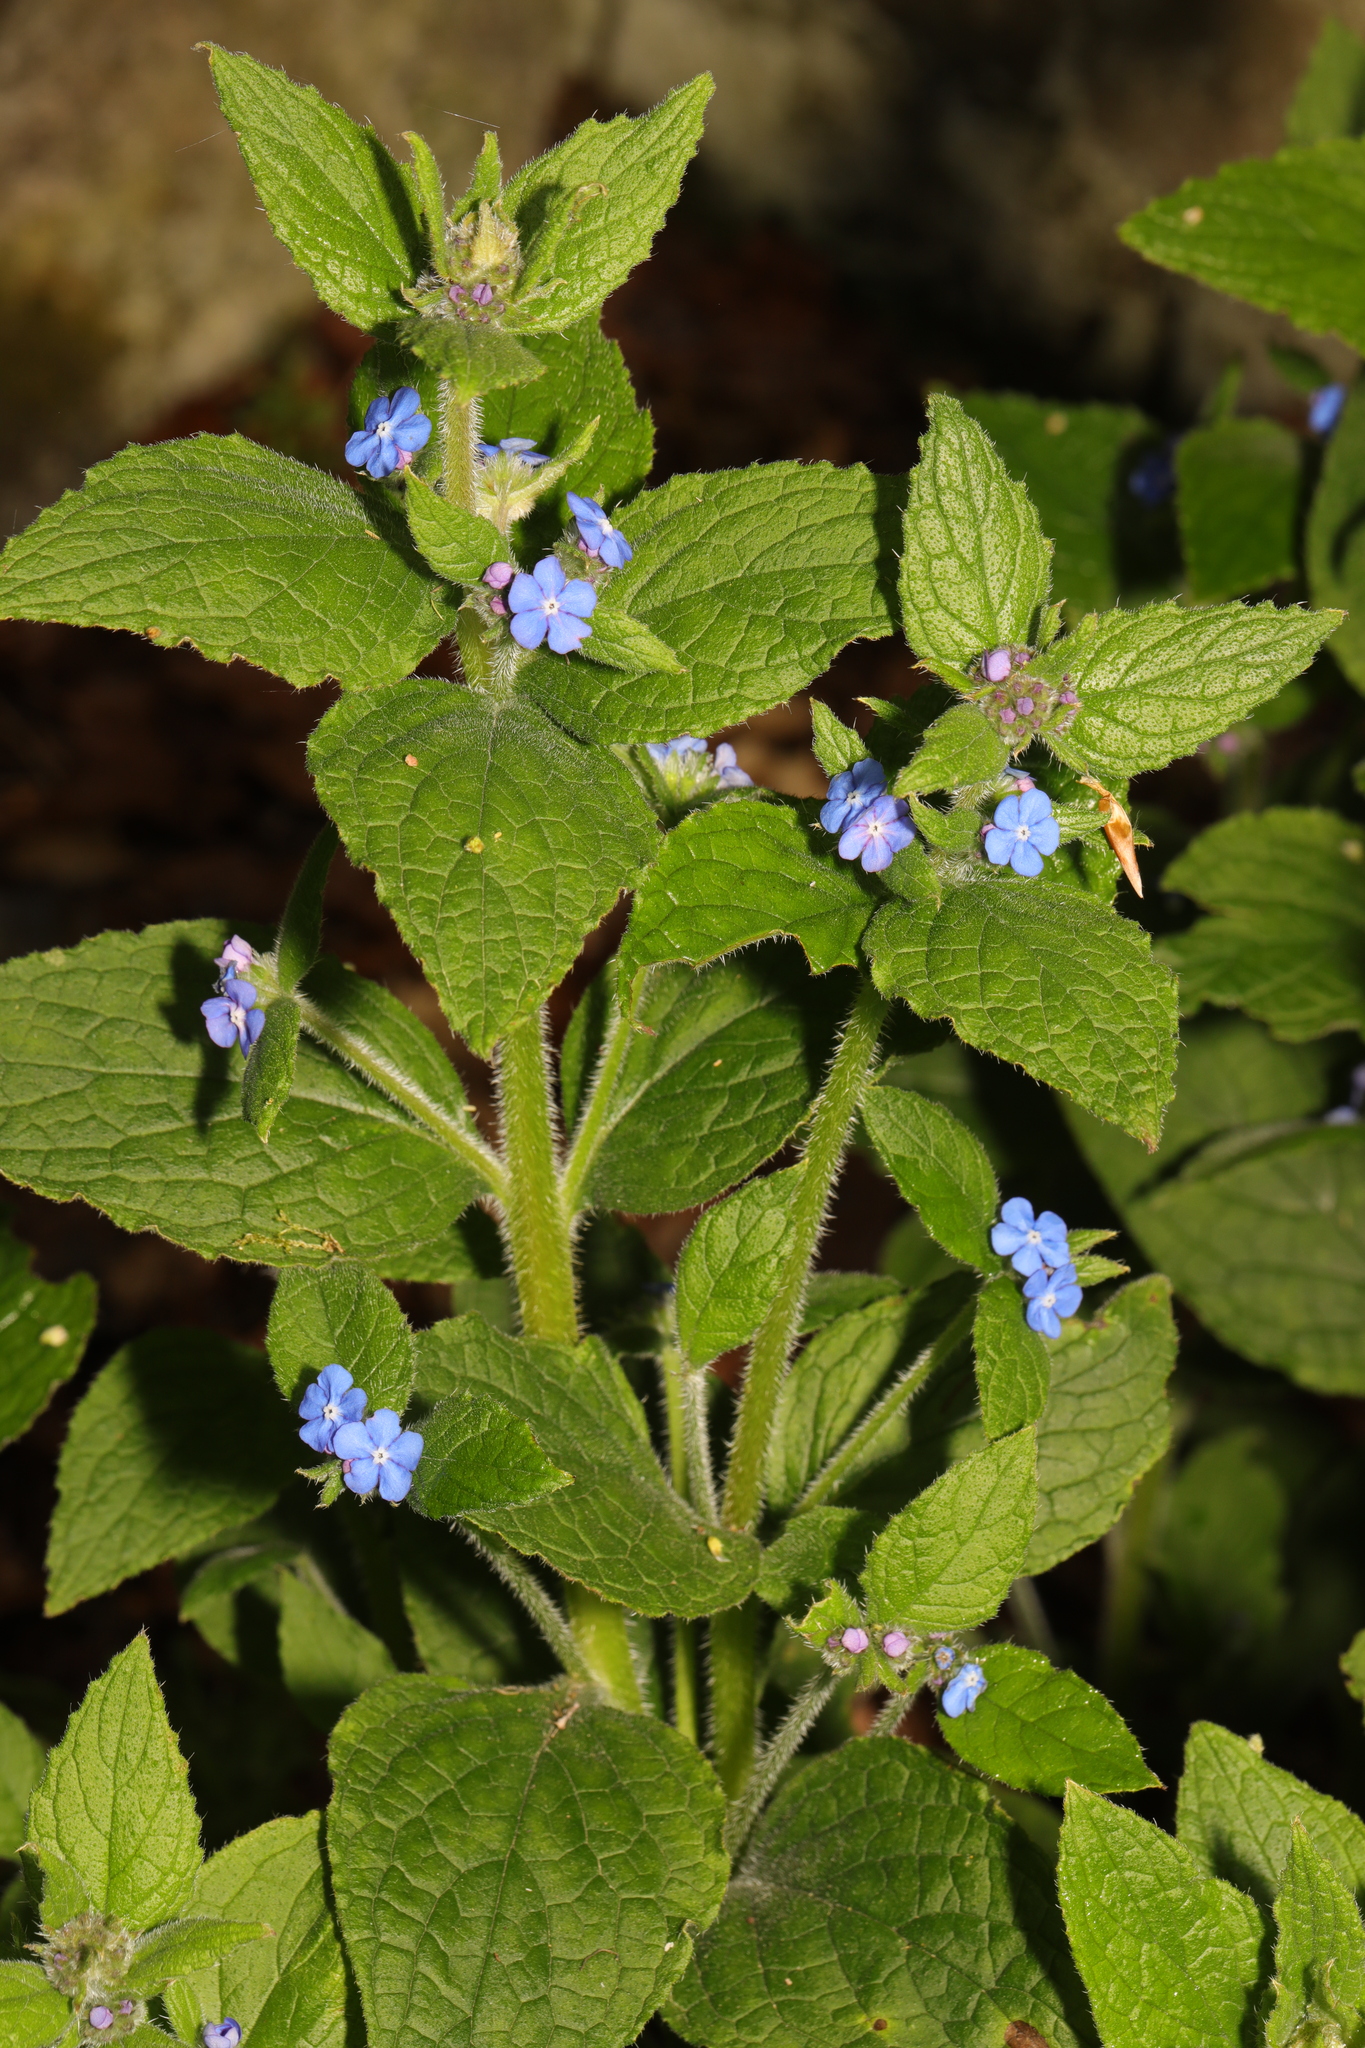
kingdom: Plantae
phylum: Tracheophyta
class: Magnoliopsida
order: Boraginales
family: Boraginaceae
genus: Pentaglottis
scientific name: Pentaglottis sempervirens
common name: Green alkanet
